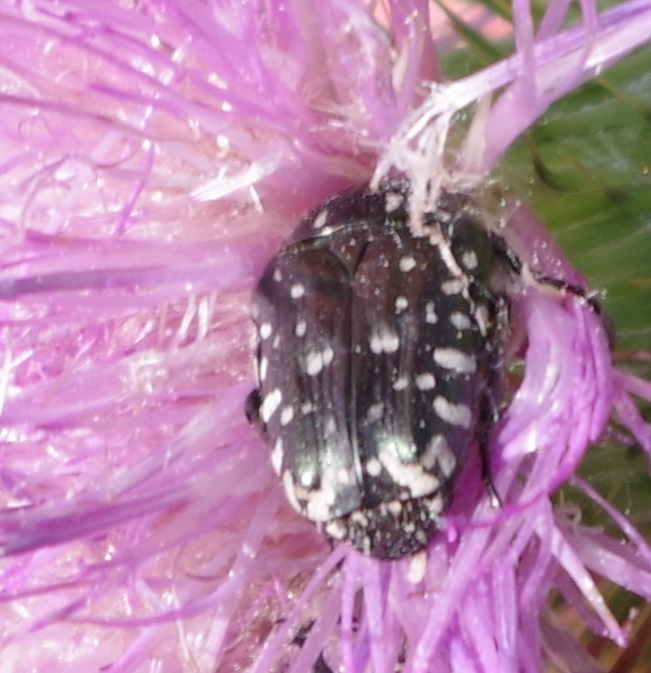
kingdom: Animalia
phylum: Arthropoda
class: Insecta
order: Coleoptera
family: Scarabaeidae
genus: Oxythyrea
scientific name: Oxythyrea funesta
